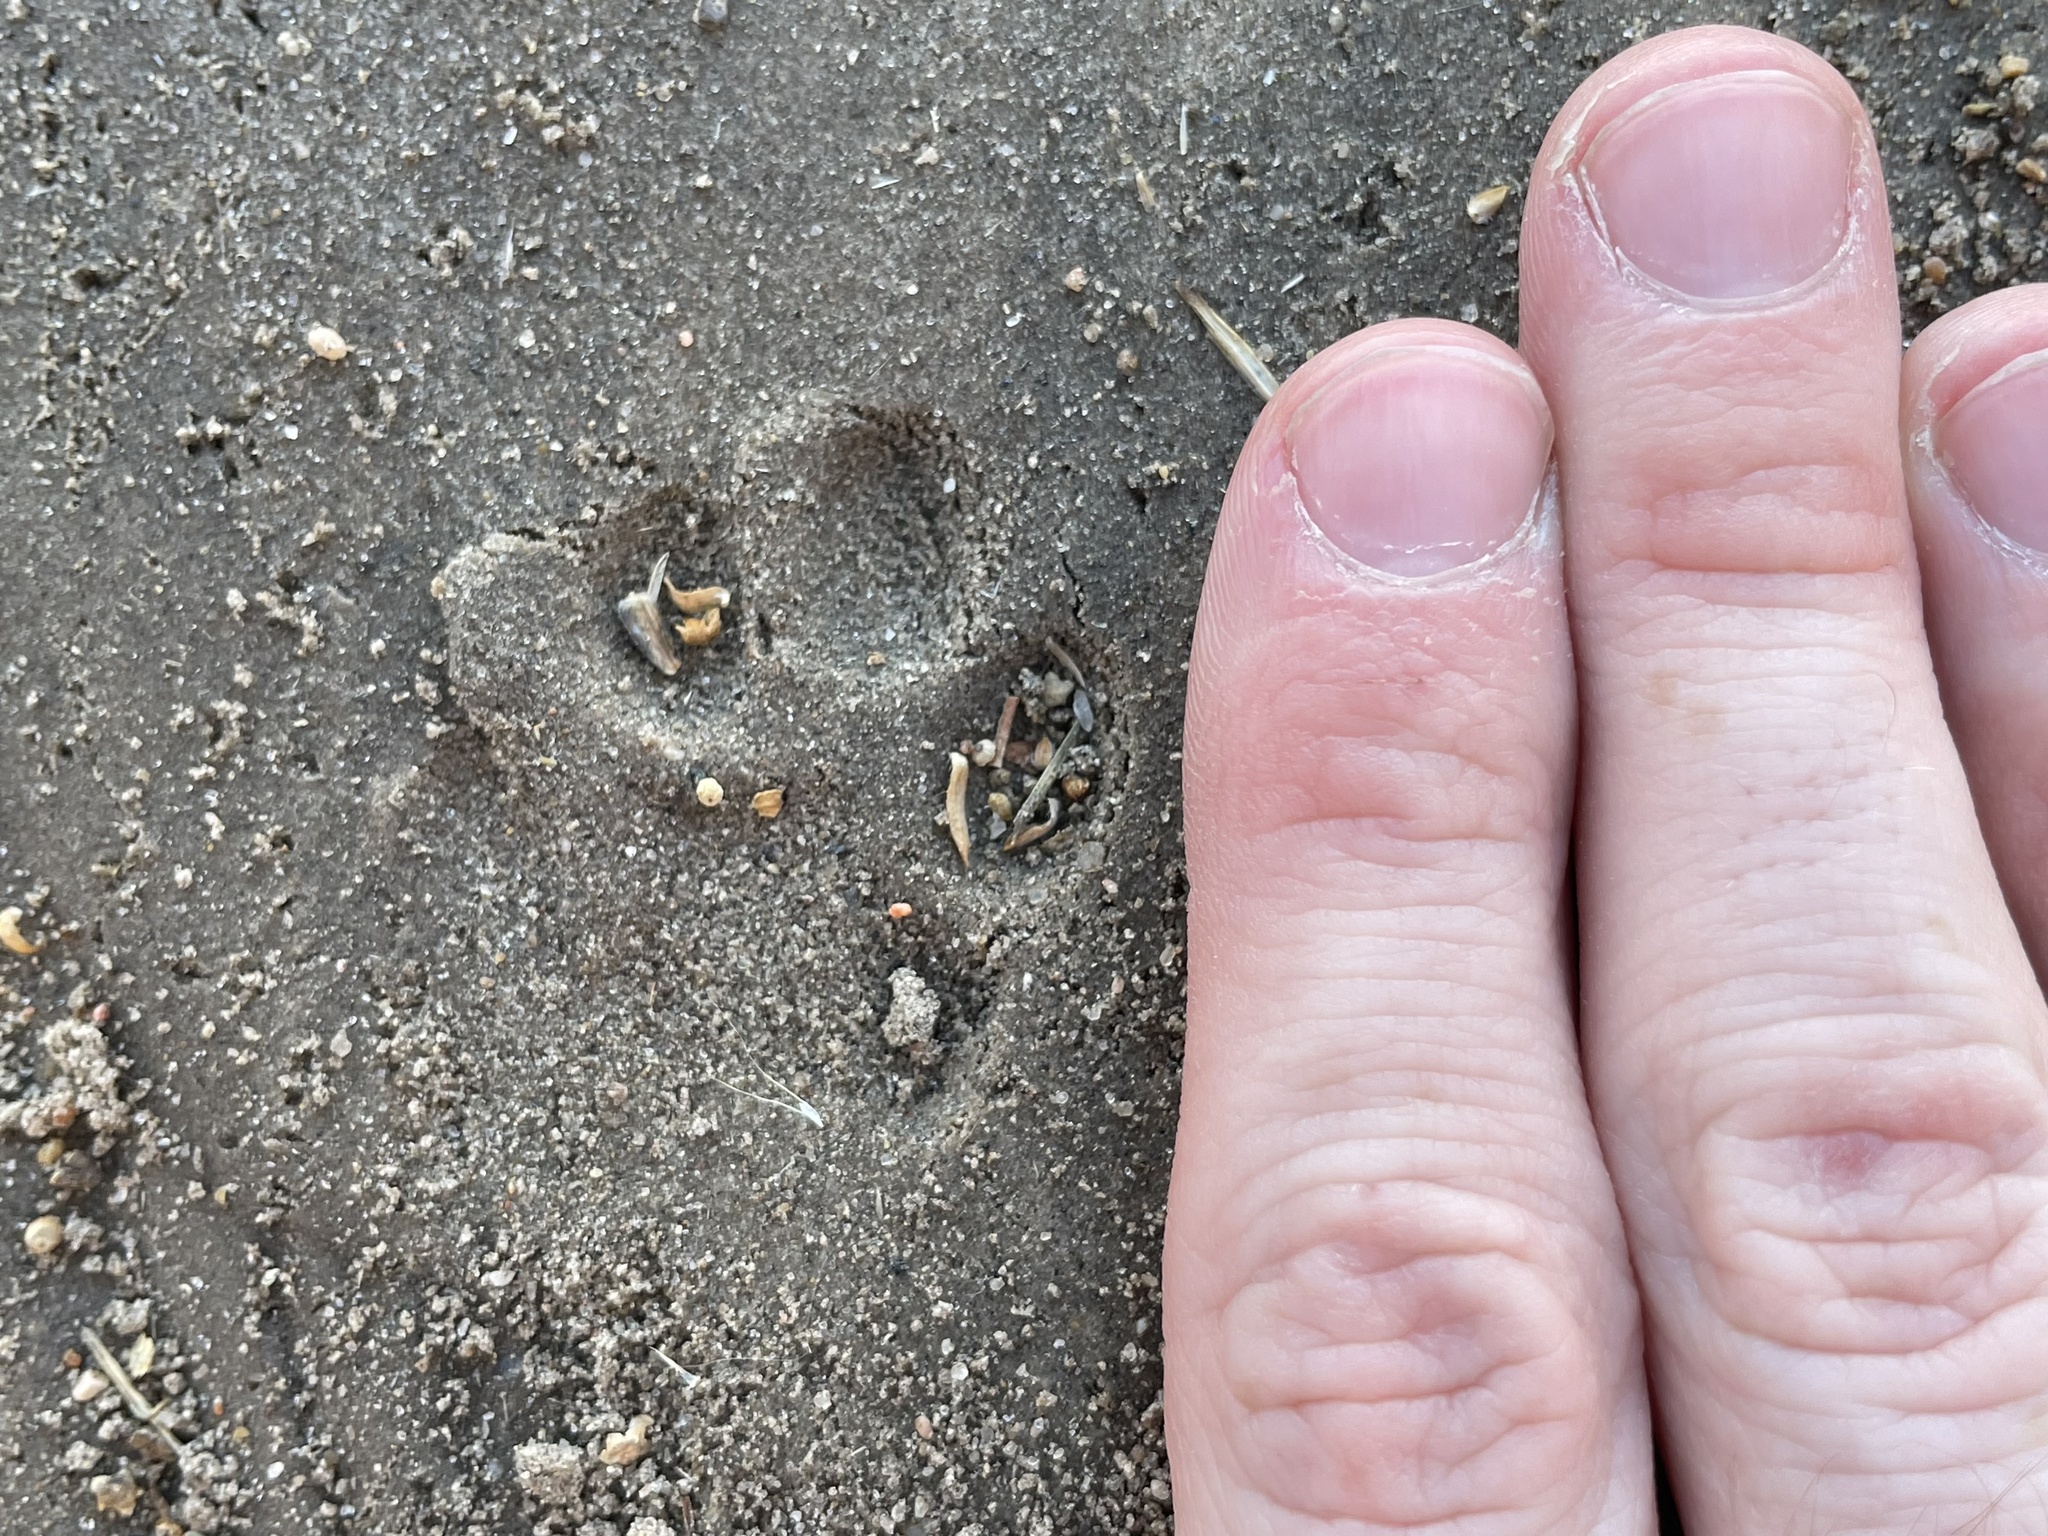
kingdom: Animalia
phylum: Chordata
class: Mammalia
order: Carnivora
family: Felidae
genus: Felis
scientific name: Felis catus
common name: Domestic cat
